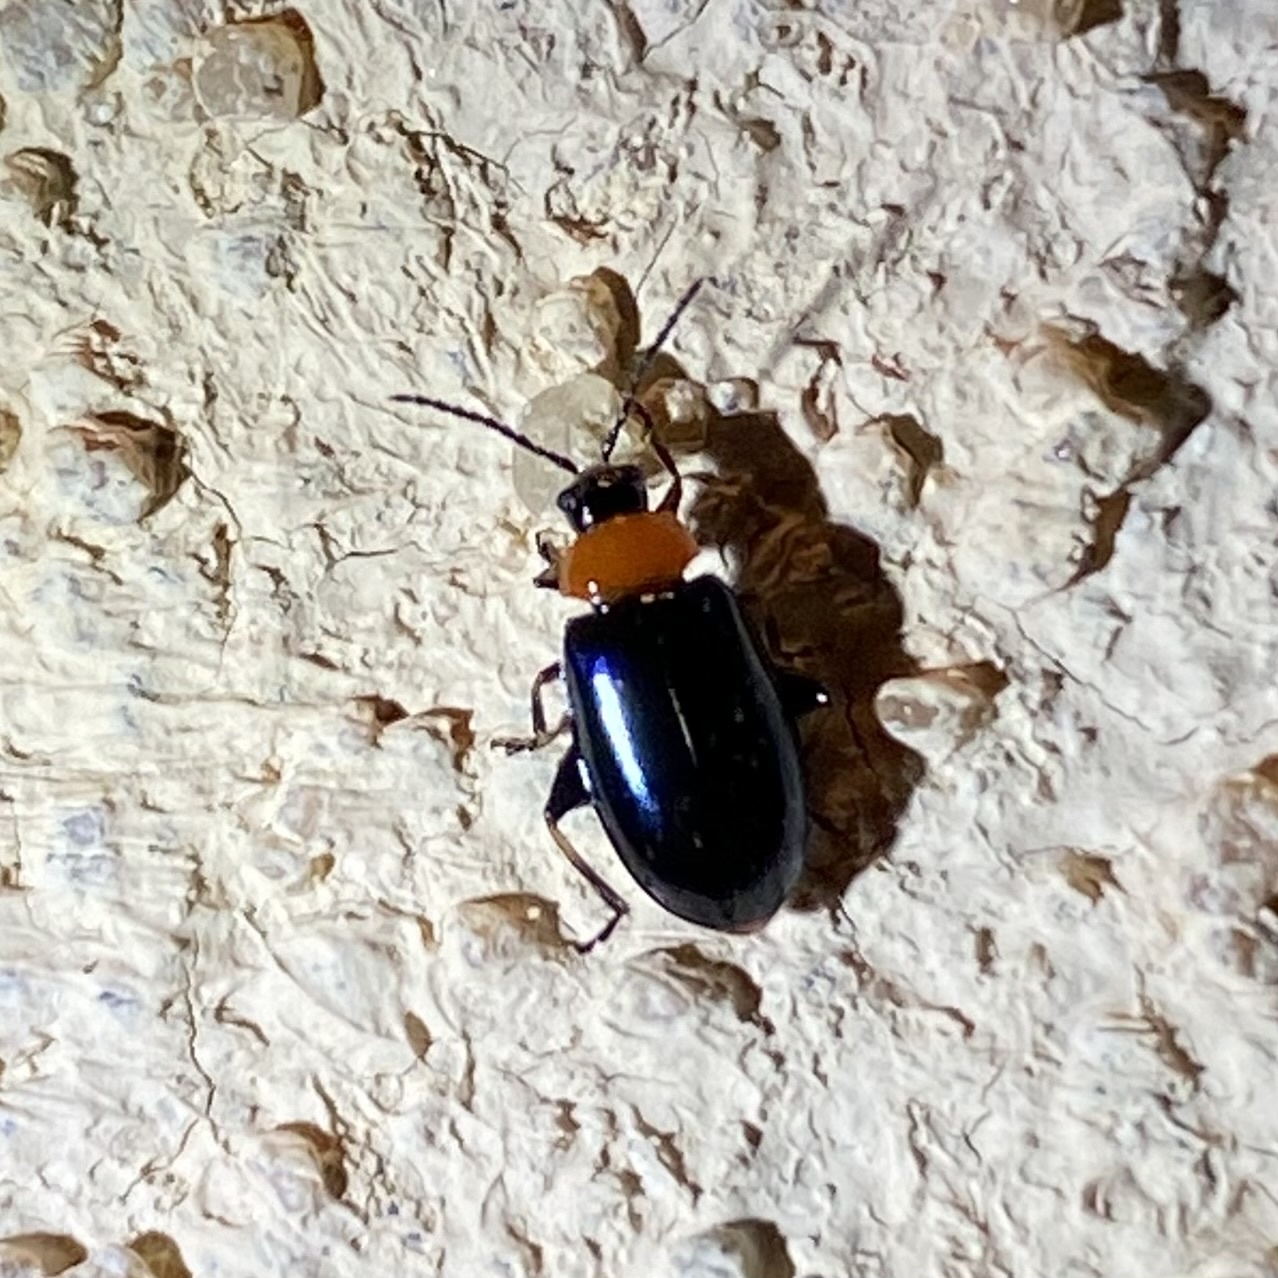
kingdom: Animalia
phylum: Arthropoda
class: Insecta
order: Coleoptera
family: Chrysomelidae
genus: Disonycha
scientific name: Disonycha politula
